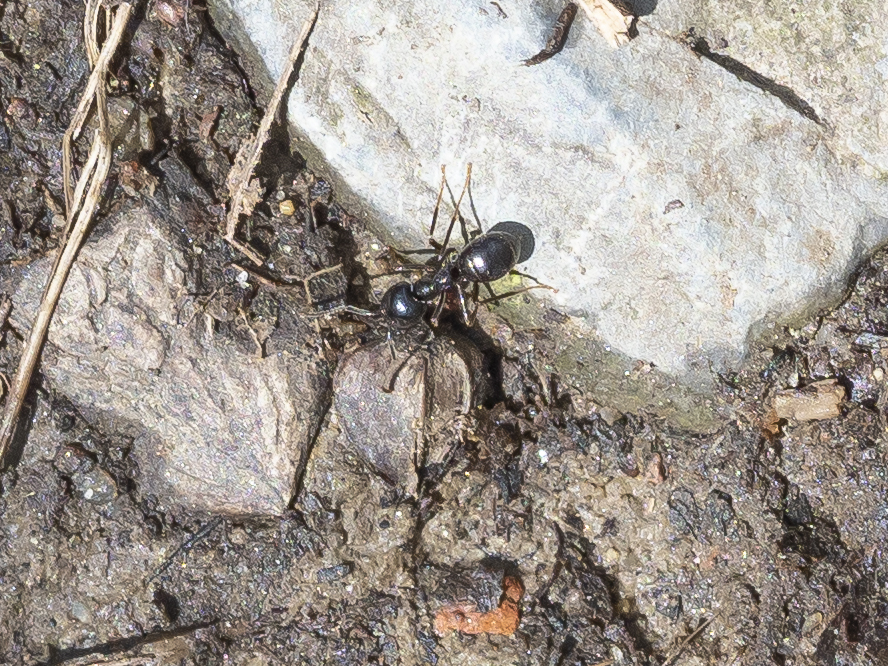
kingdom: Animalia
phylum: Arthropoda
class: Insecta
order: Hymenoptera
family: Formicidae
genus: Lasius
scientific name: Lasius fuliginosus
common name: Jet ant
